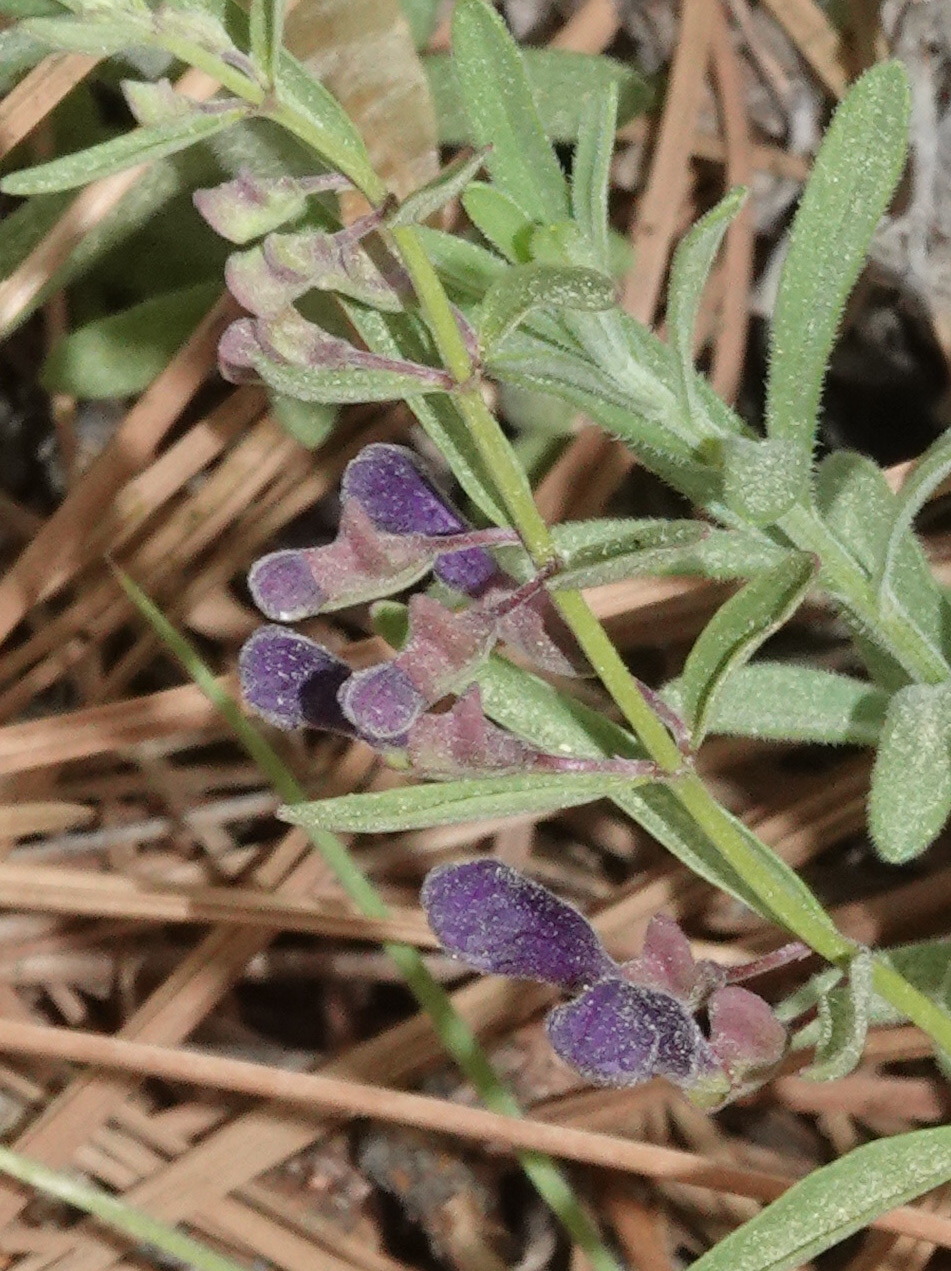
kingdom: Plantae
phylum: Tracheophyta
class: Magnoliopsida
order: Lamiales
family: Lamiaceae
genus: Scutellaria
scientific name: Scutellaria siphocampyloides
